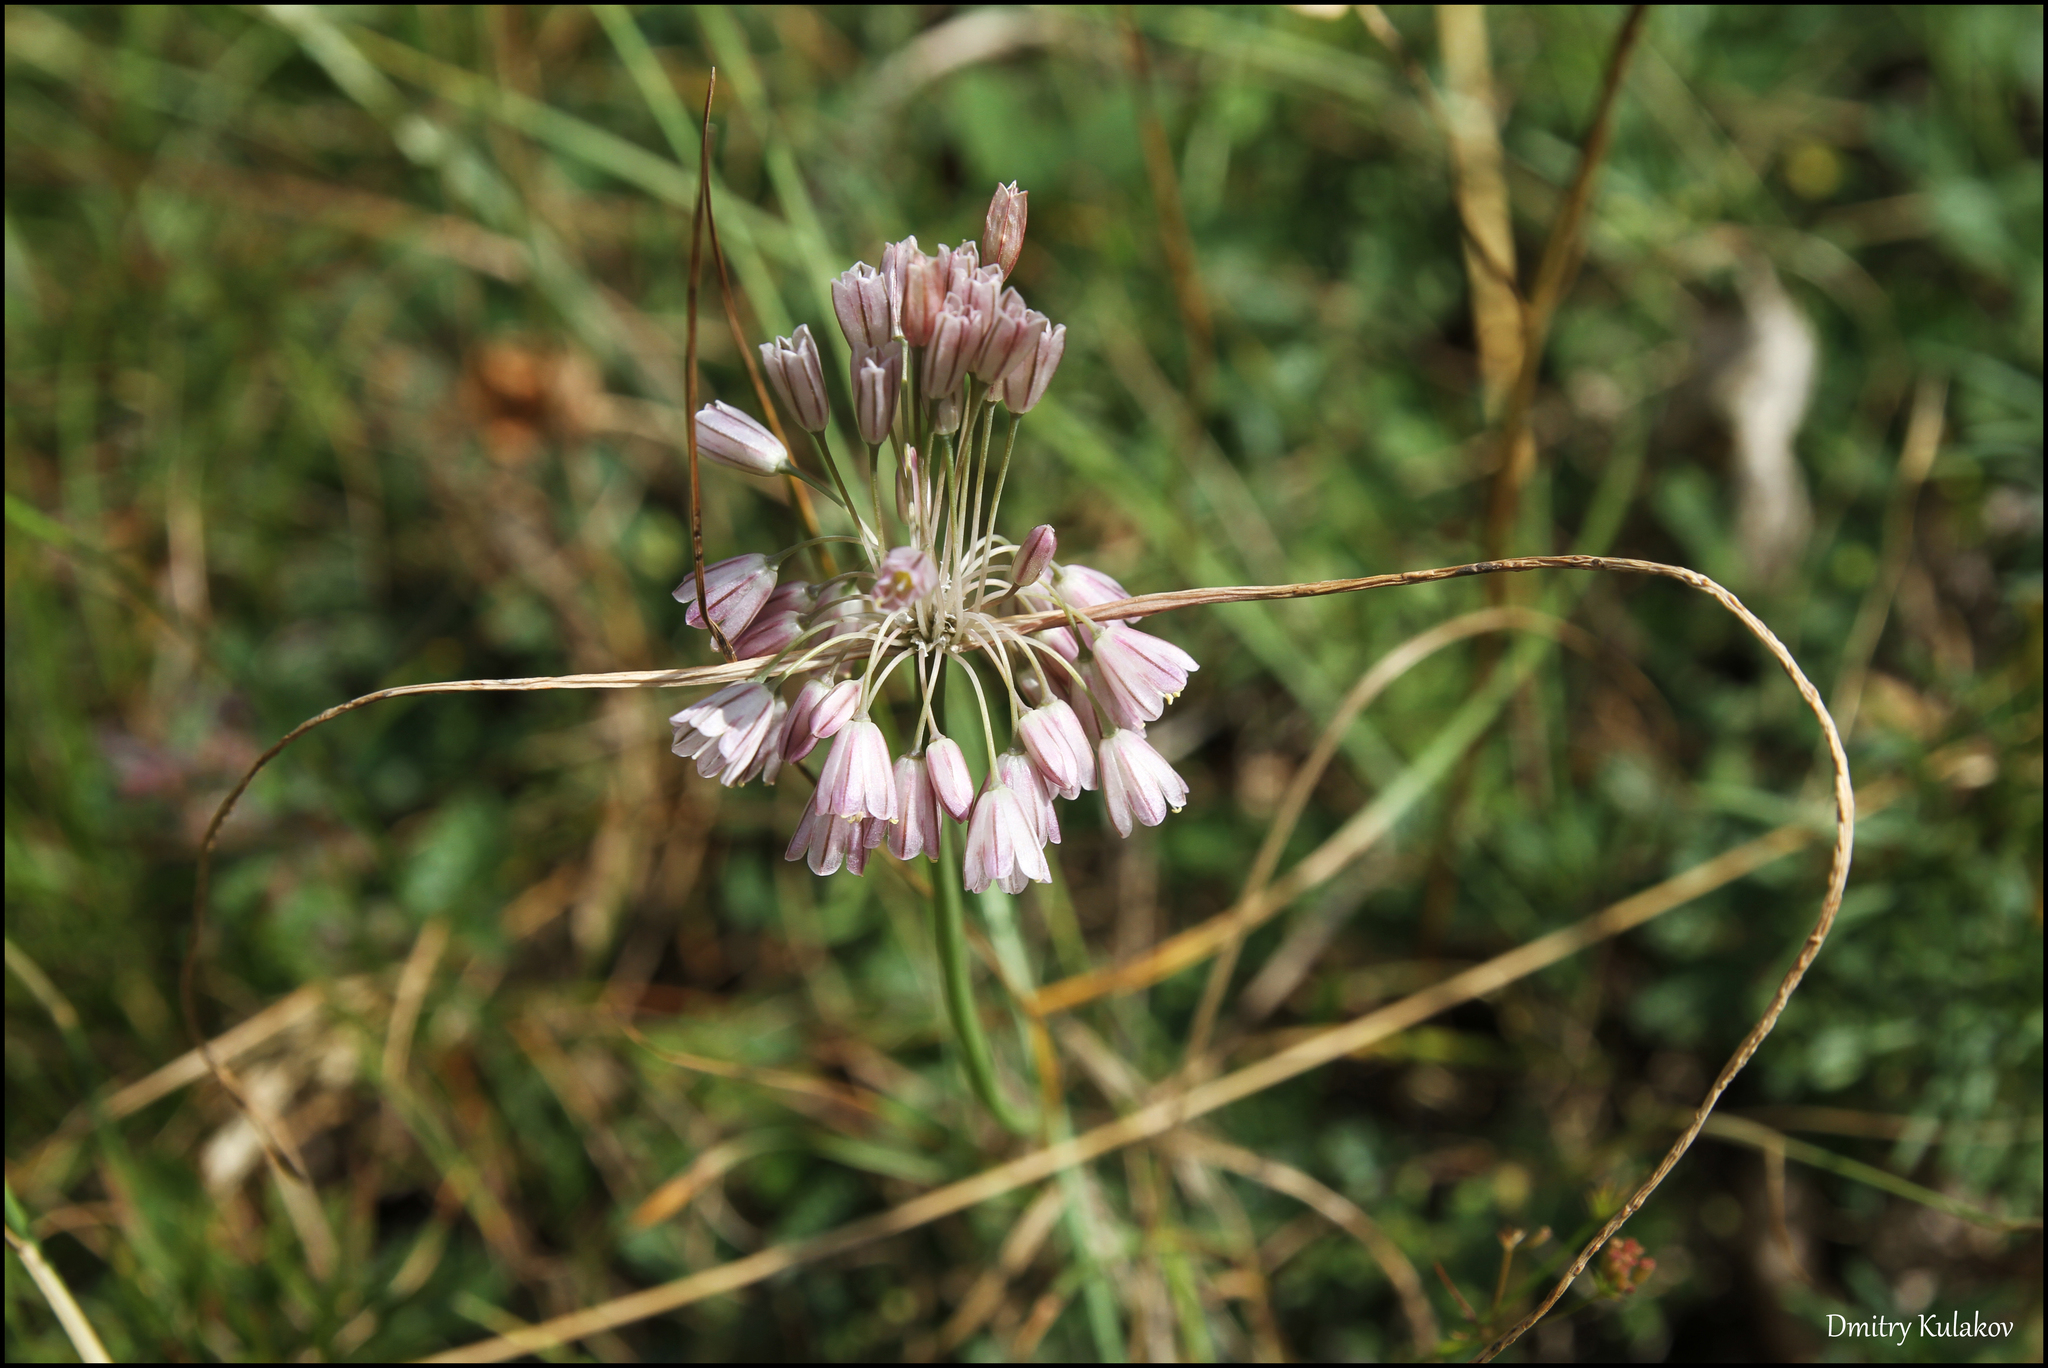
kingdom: Plantae
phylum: Tracheophyta
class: Liliopsida
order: Asparagales
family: Amaryllidaceae
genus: Allium
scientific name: Allium paniculatum
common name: Pale garlic
